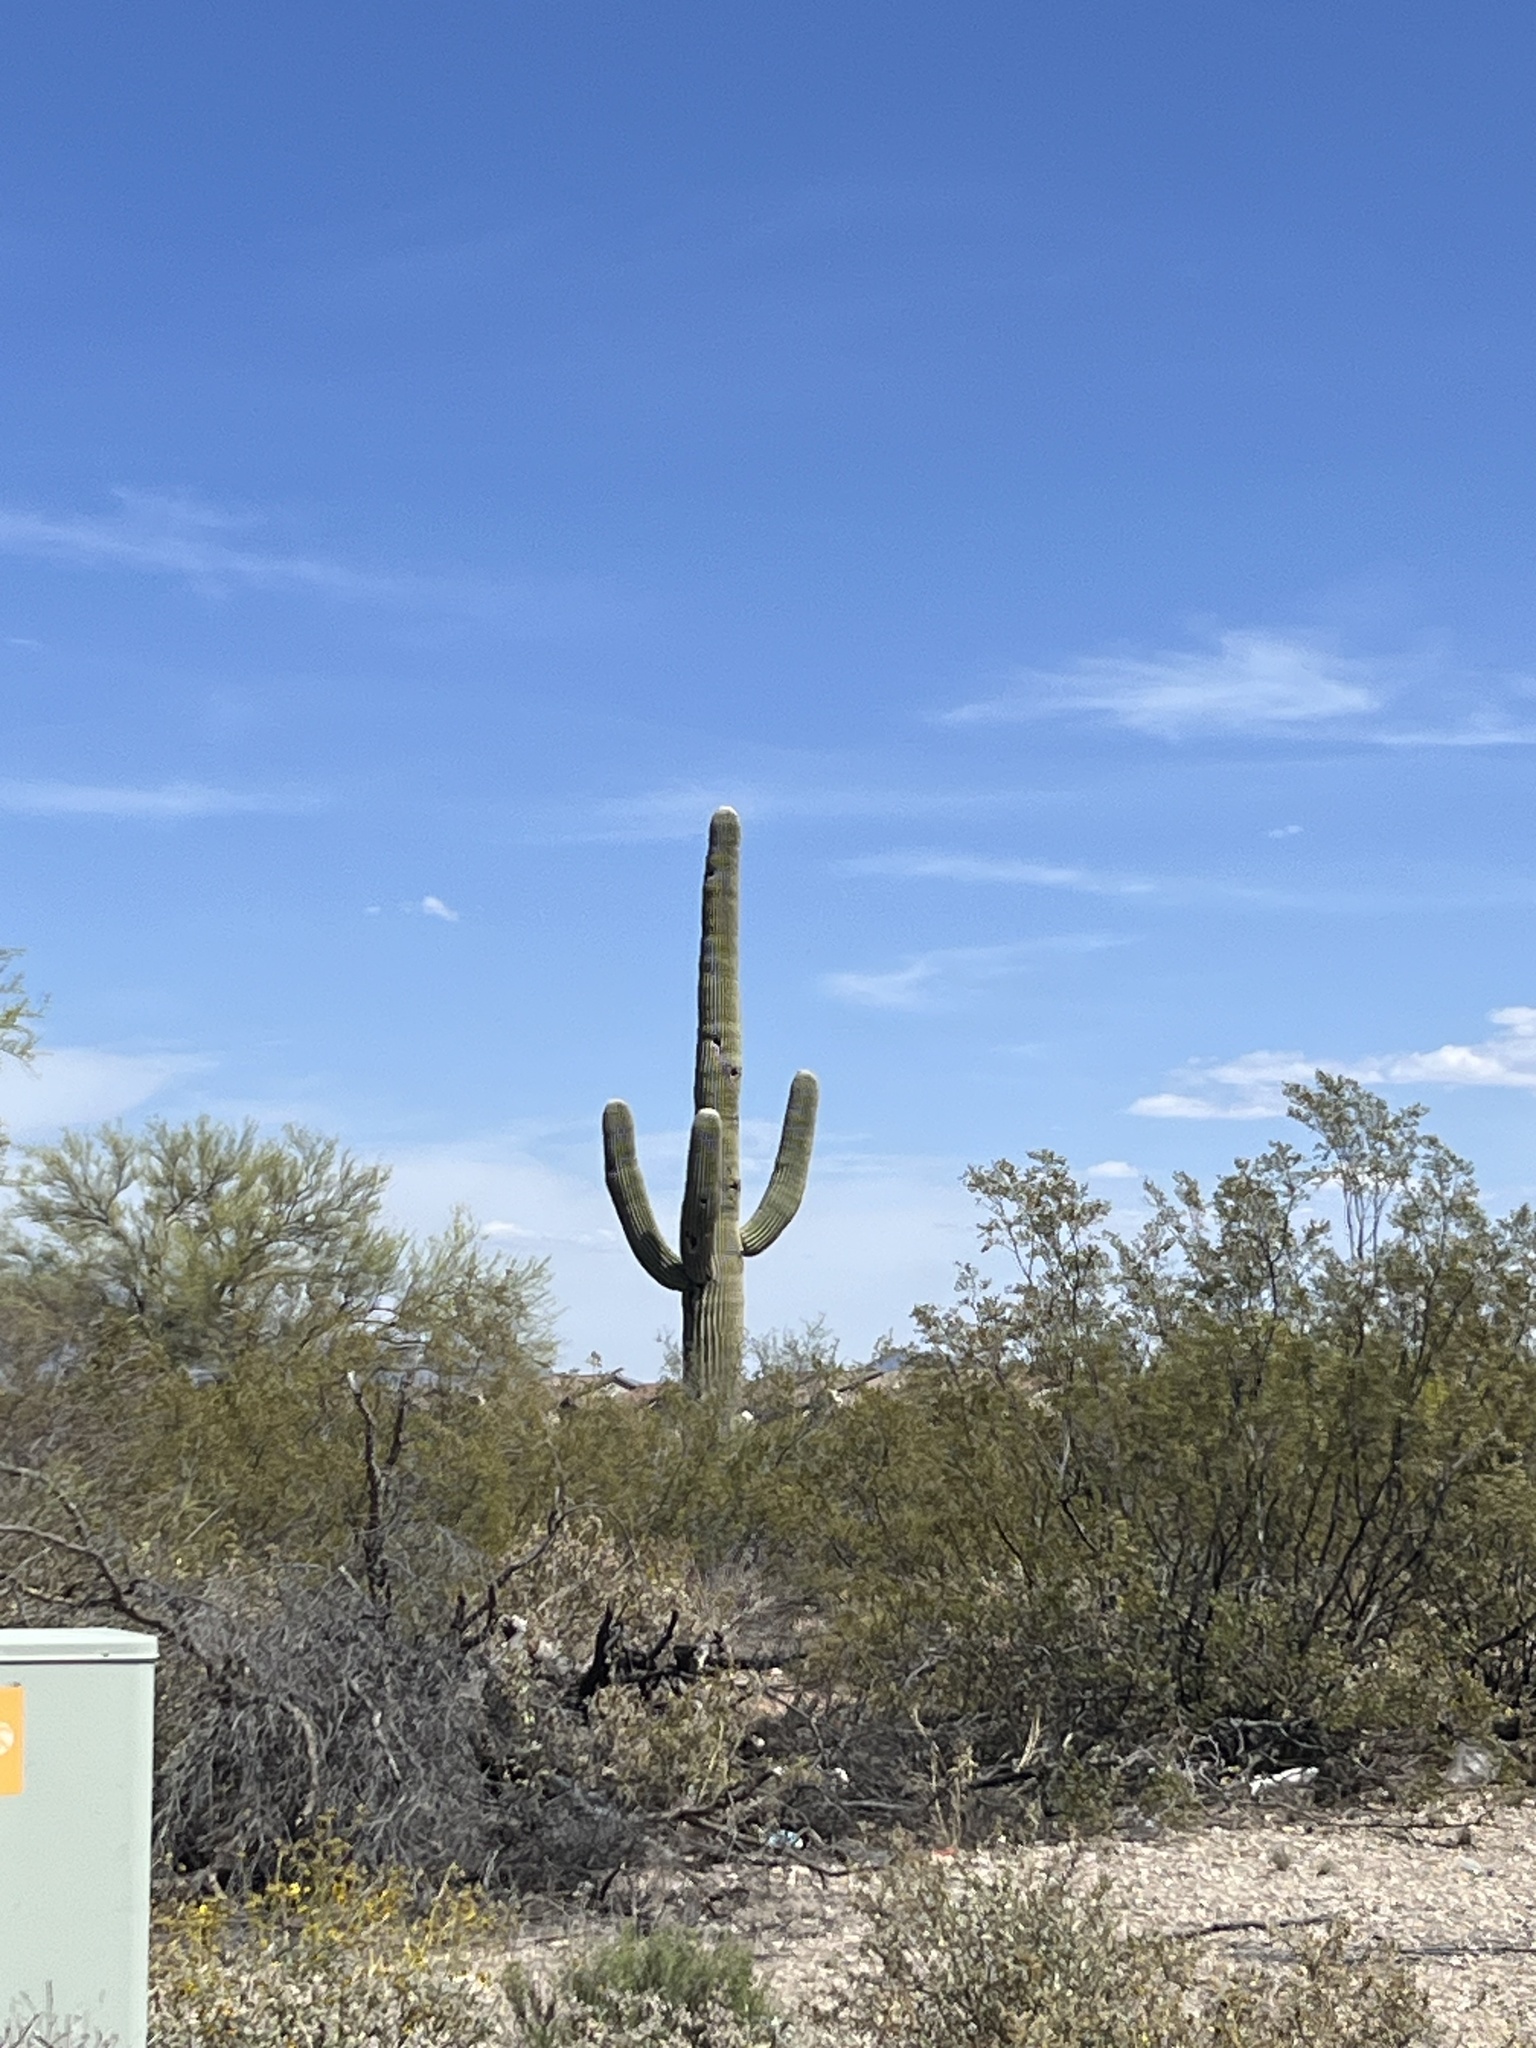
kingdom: Plantae
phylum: Tracheophyta
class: Magnoliopsida
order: Caryophyllales
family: Cactaceae
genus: Carnegiea
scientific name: Carnegiea gigantea
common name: Saguaro
